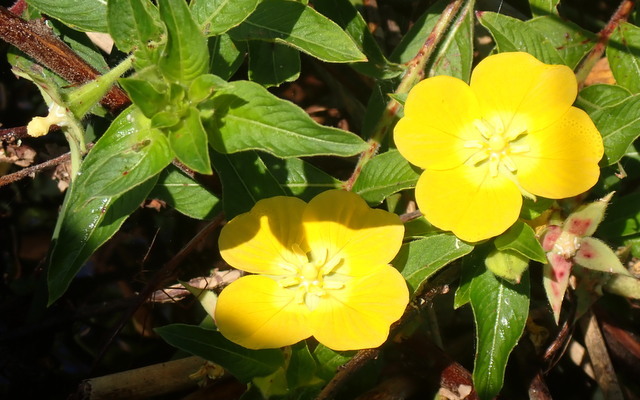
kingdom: Plantae
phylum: Tracheophyta
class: Magnoliopsida
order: Myrtales
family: Onagraceae
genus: Ludwigia
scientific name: Ludwigia peruviana
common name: Peruvian primrose-willow
